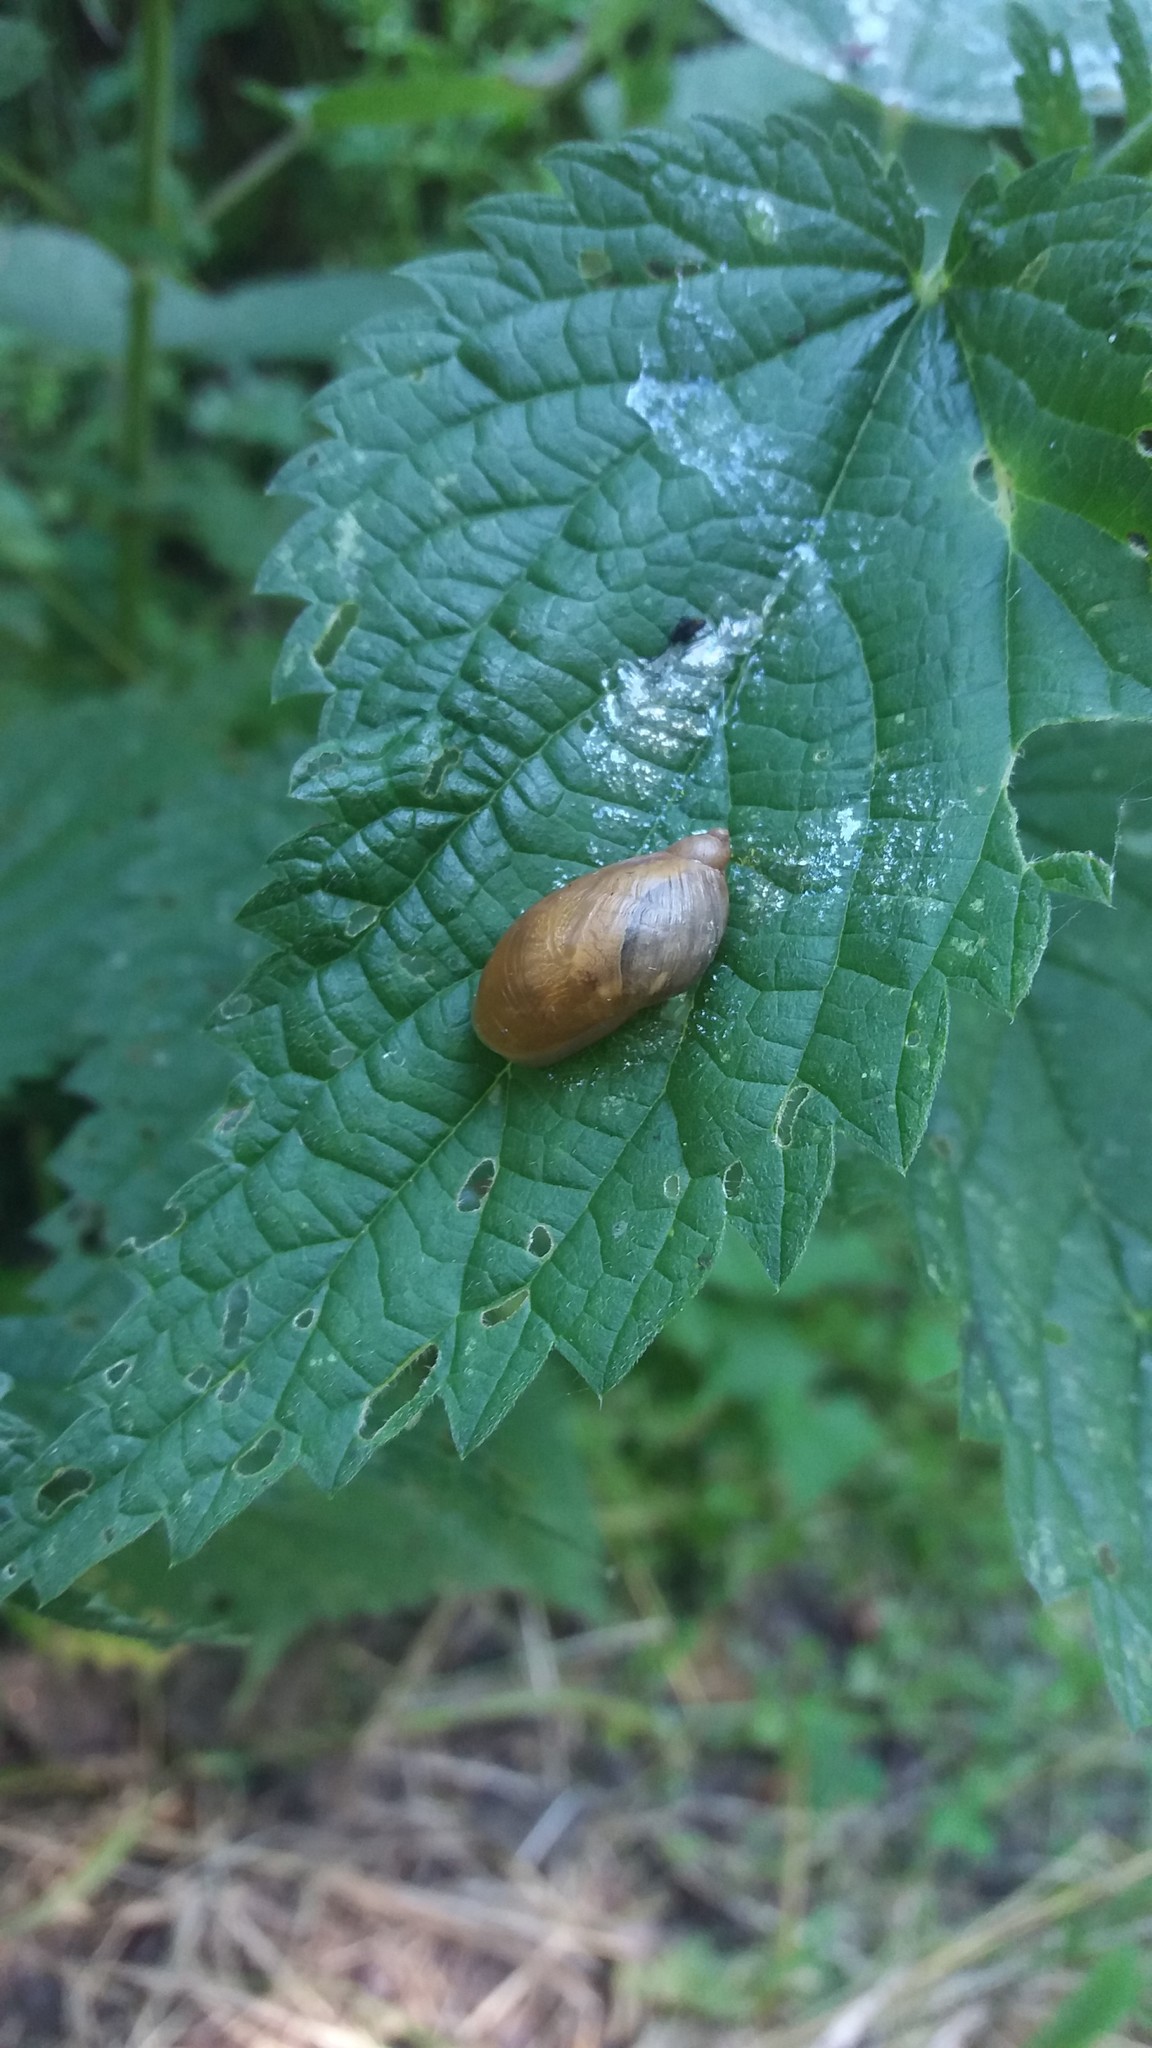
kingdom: Animalia
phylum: Mollusca
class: Gastropoda
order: Stylommatophora
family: Succineidae
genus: Succinea
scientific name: Succinea putris
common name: European ambersnail
